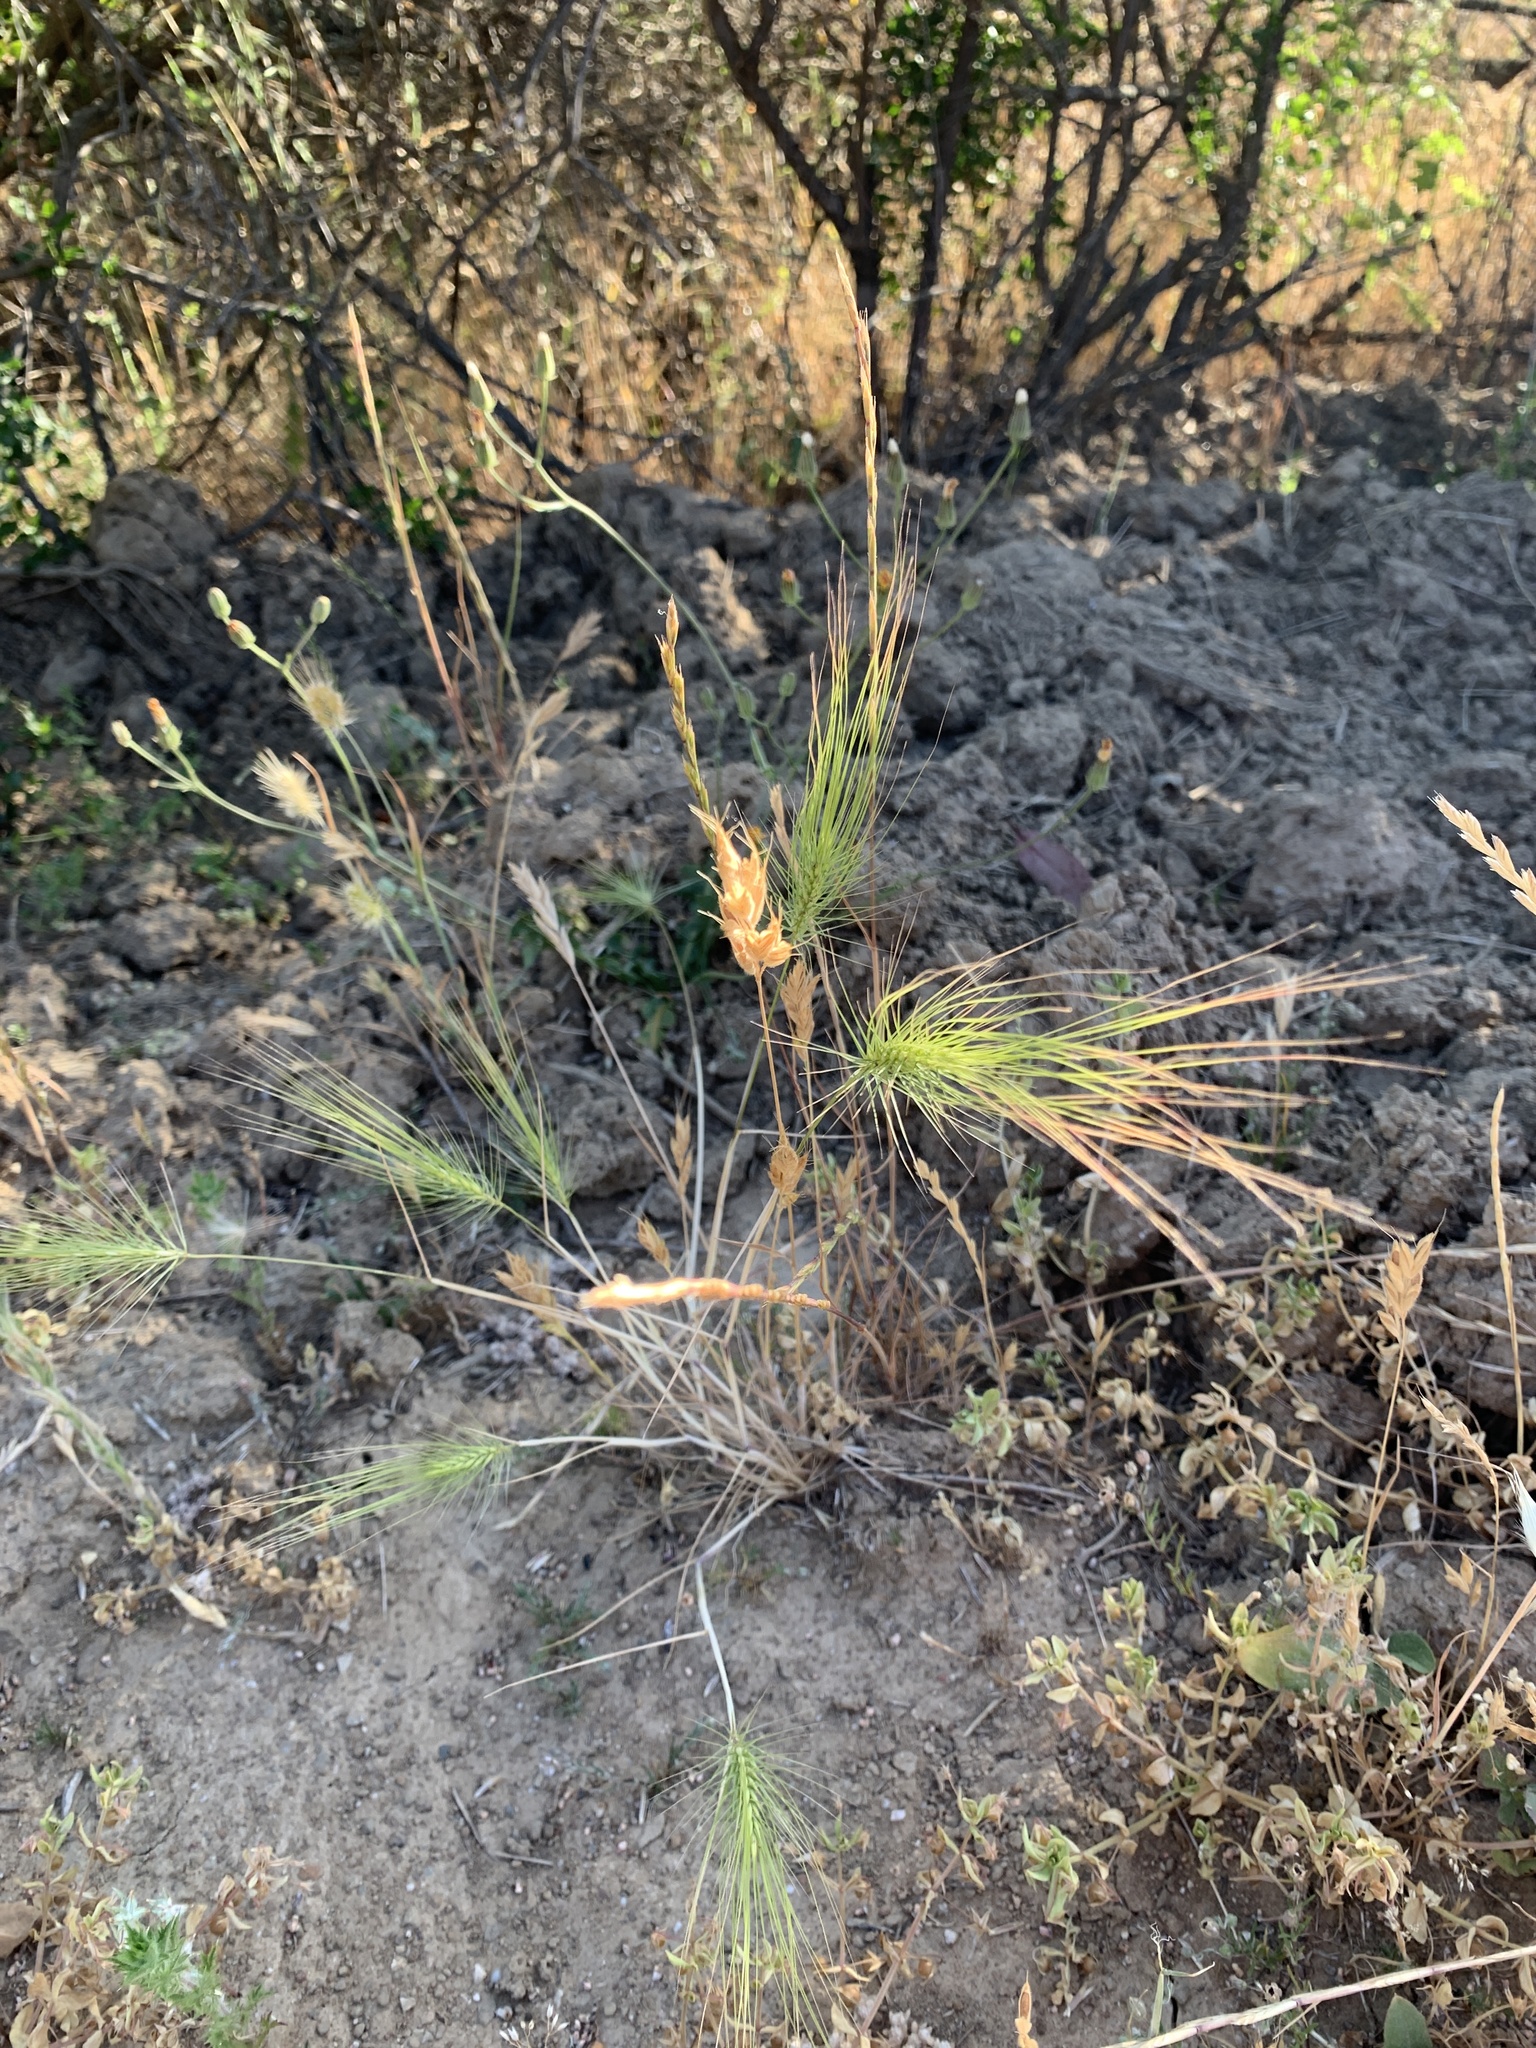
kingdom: Plantae
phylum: Tracheophyta
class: Liliopsida
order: Poales
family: Poaceae
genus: Taeniatherum
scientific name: Taeniatherum caput-medusae
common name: Medusahead
